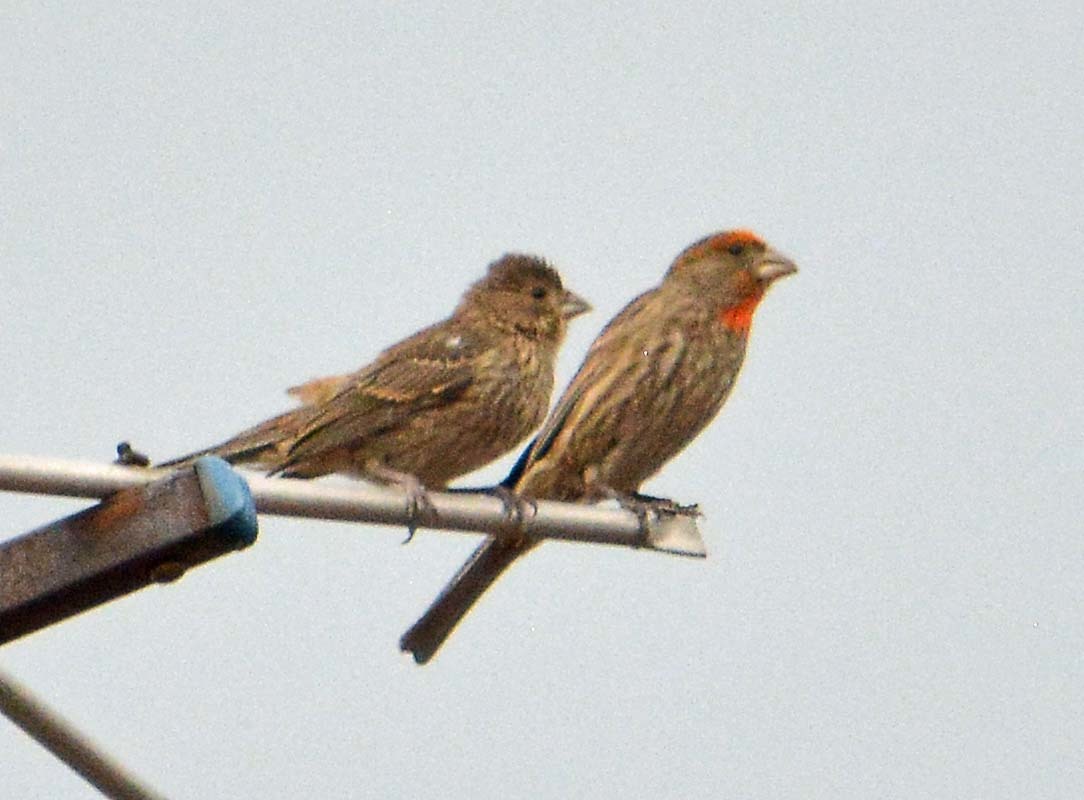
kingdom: Animalia
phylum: Chordata
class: Aves
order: Passeriformes
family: Fringillidae
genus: Haemorhous
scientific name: Haemorhous mexicanus
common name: House finch
